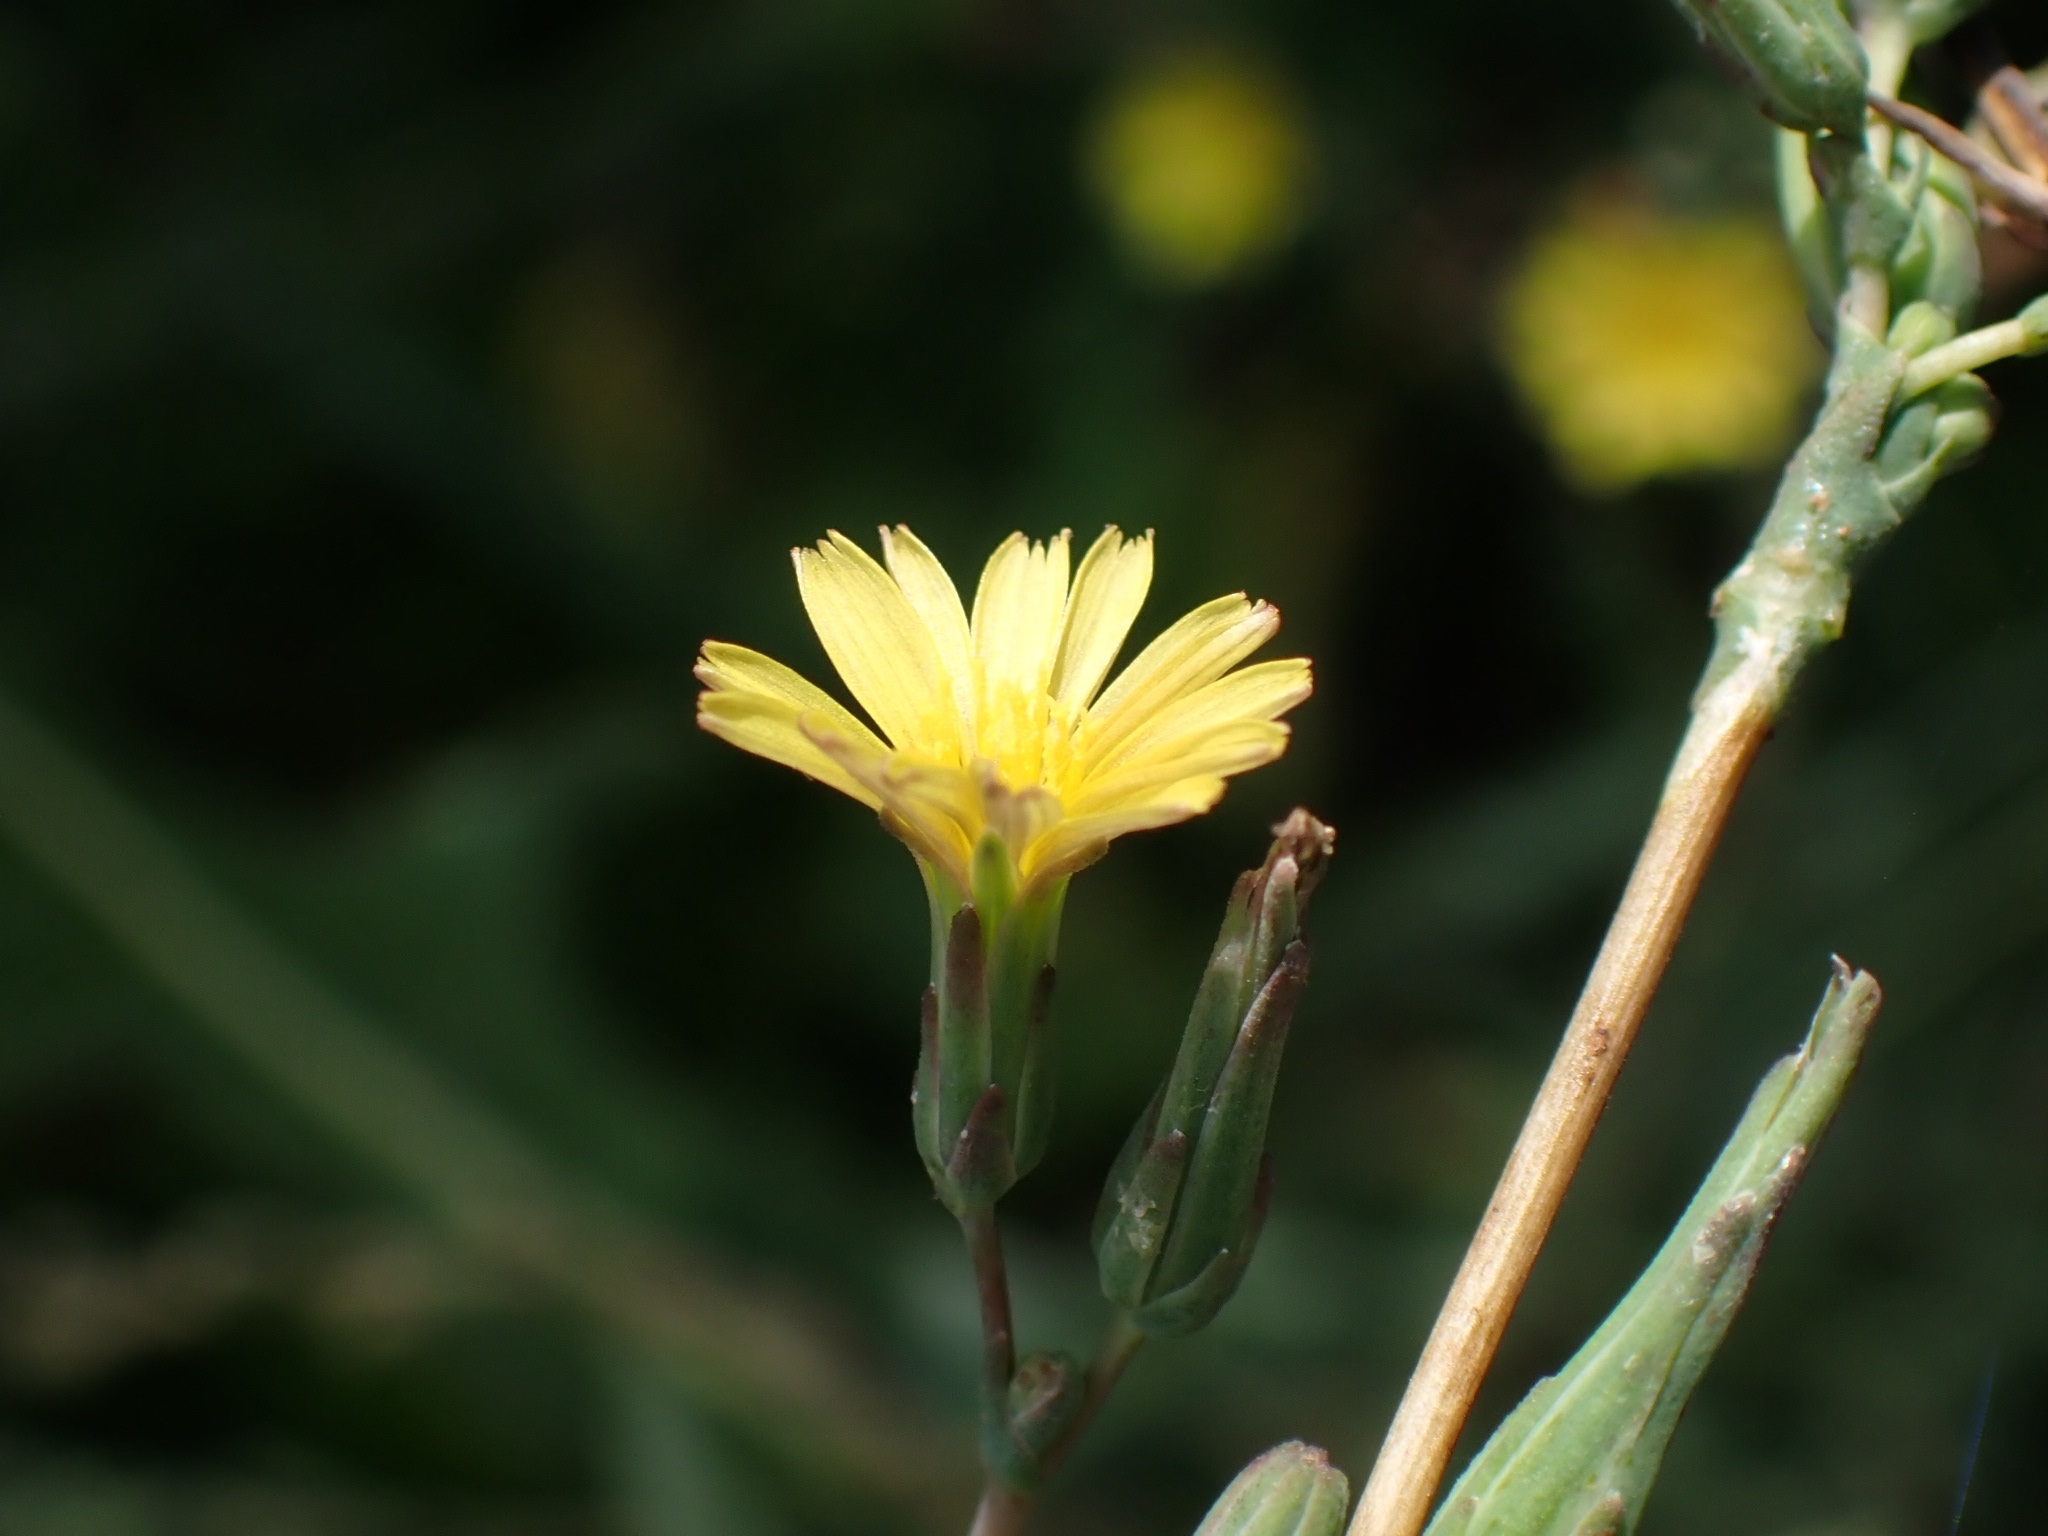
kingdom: Plantae
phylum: Tracheophyta
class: Magnoliopsida
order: Asterales
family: Asteraceae
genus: Lactuca
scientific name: Lactuca serriola
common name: Prickly lettuce
